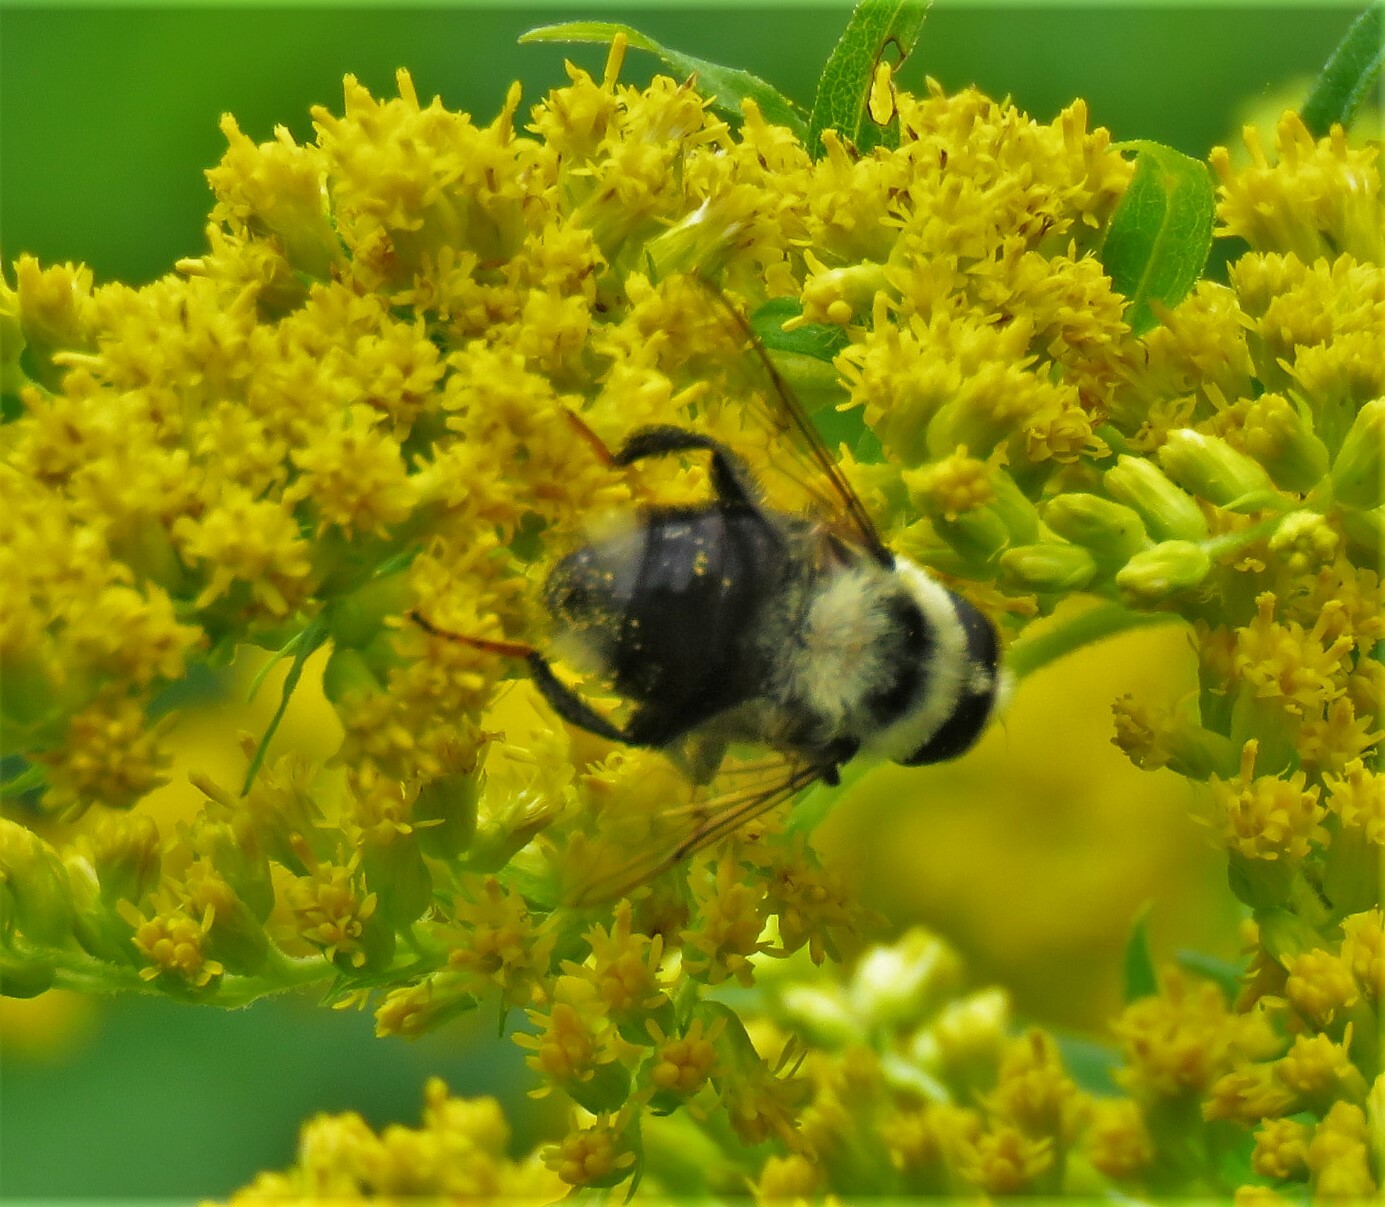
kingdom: Animalia
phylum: Arthropoda
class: Insecta
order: Diptera
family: Syrphidae
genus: Eristalis
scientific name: Eristalis flavipes
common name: Orange-legged drone fly
